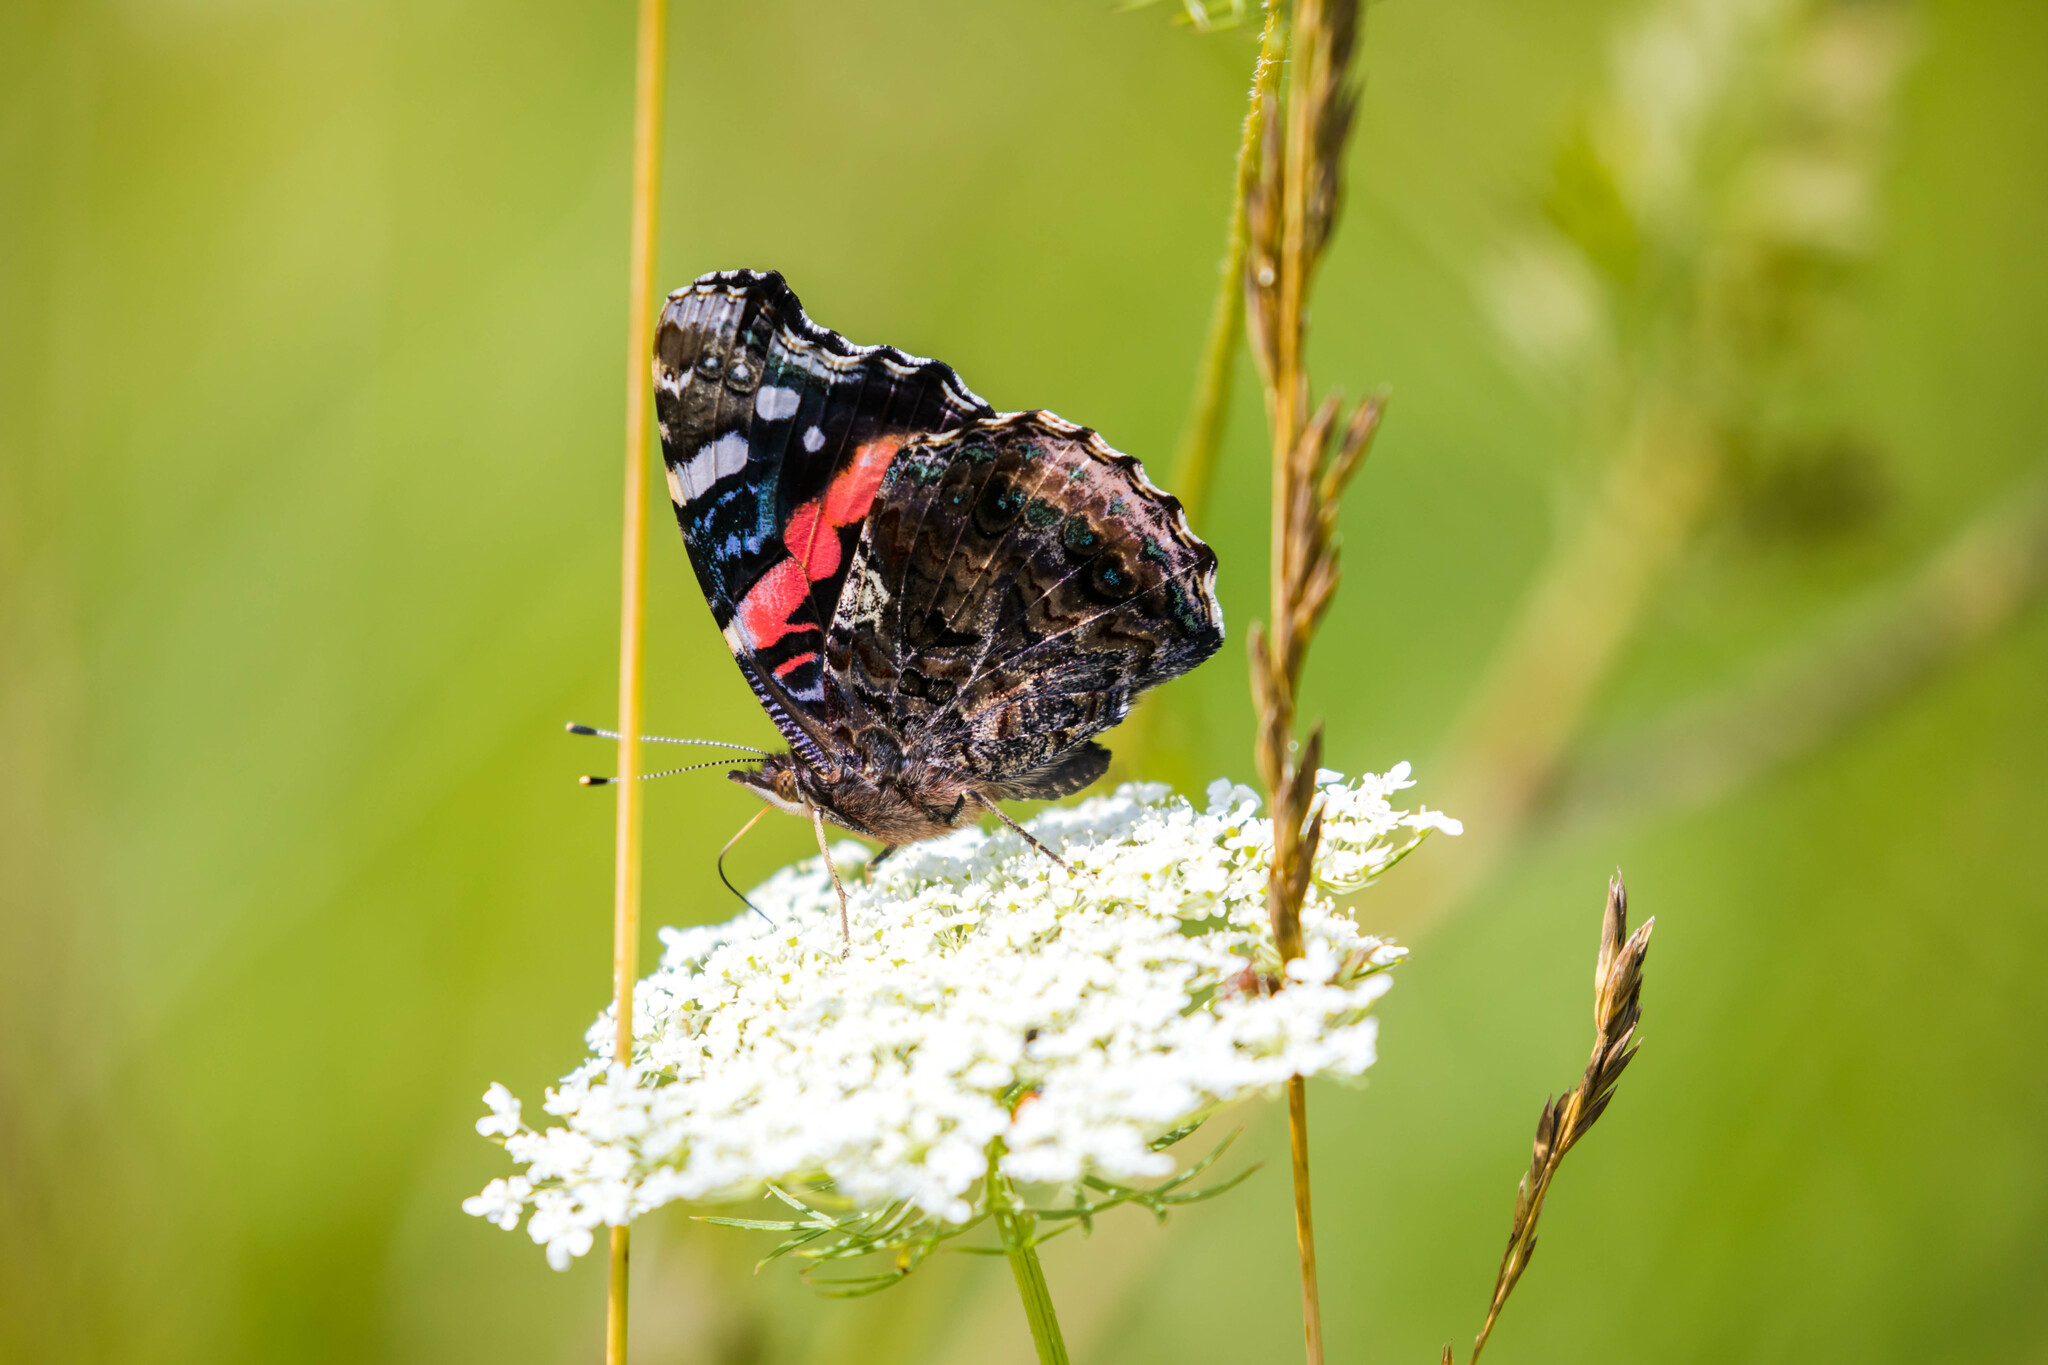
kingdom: Animalia
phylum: Arthropoda
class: Insecta
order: Lepidoptera
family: Nymphalidae
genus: Vanessa
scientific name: Vanessa atalanta
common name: Red admiral
